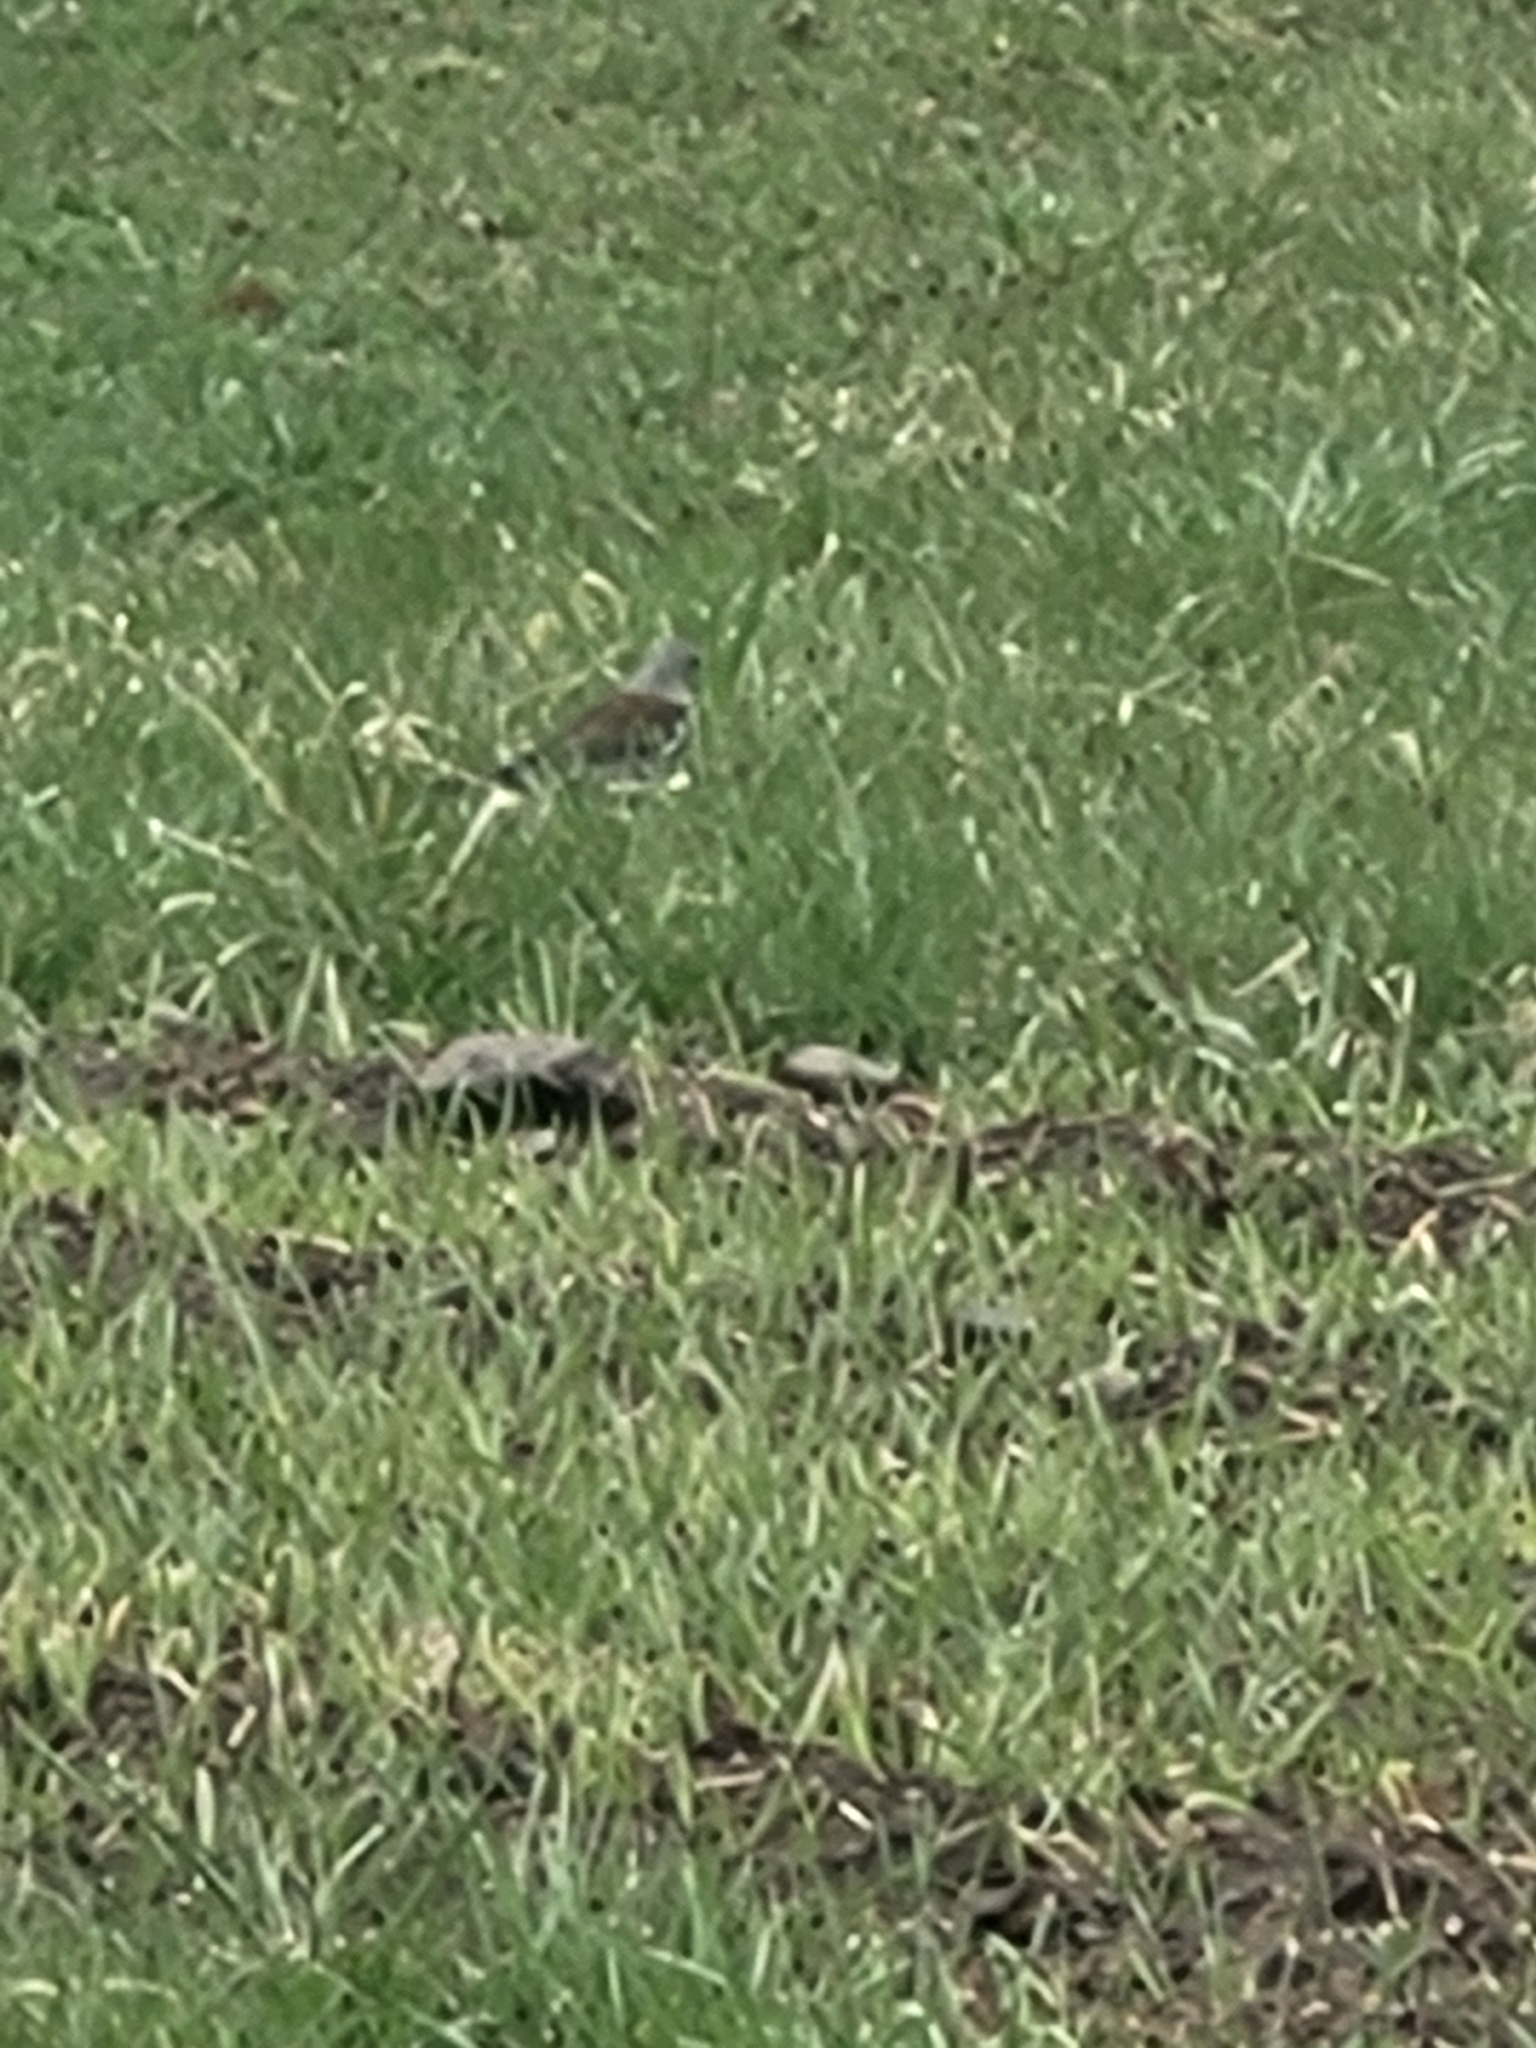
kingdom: Animalia
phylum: Chordata
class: Aves
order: Passeriformes
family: Turdidae
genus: Turdus
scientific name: Turdus pilaris
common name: Fieldfare
